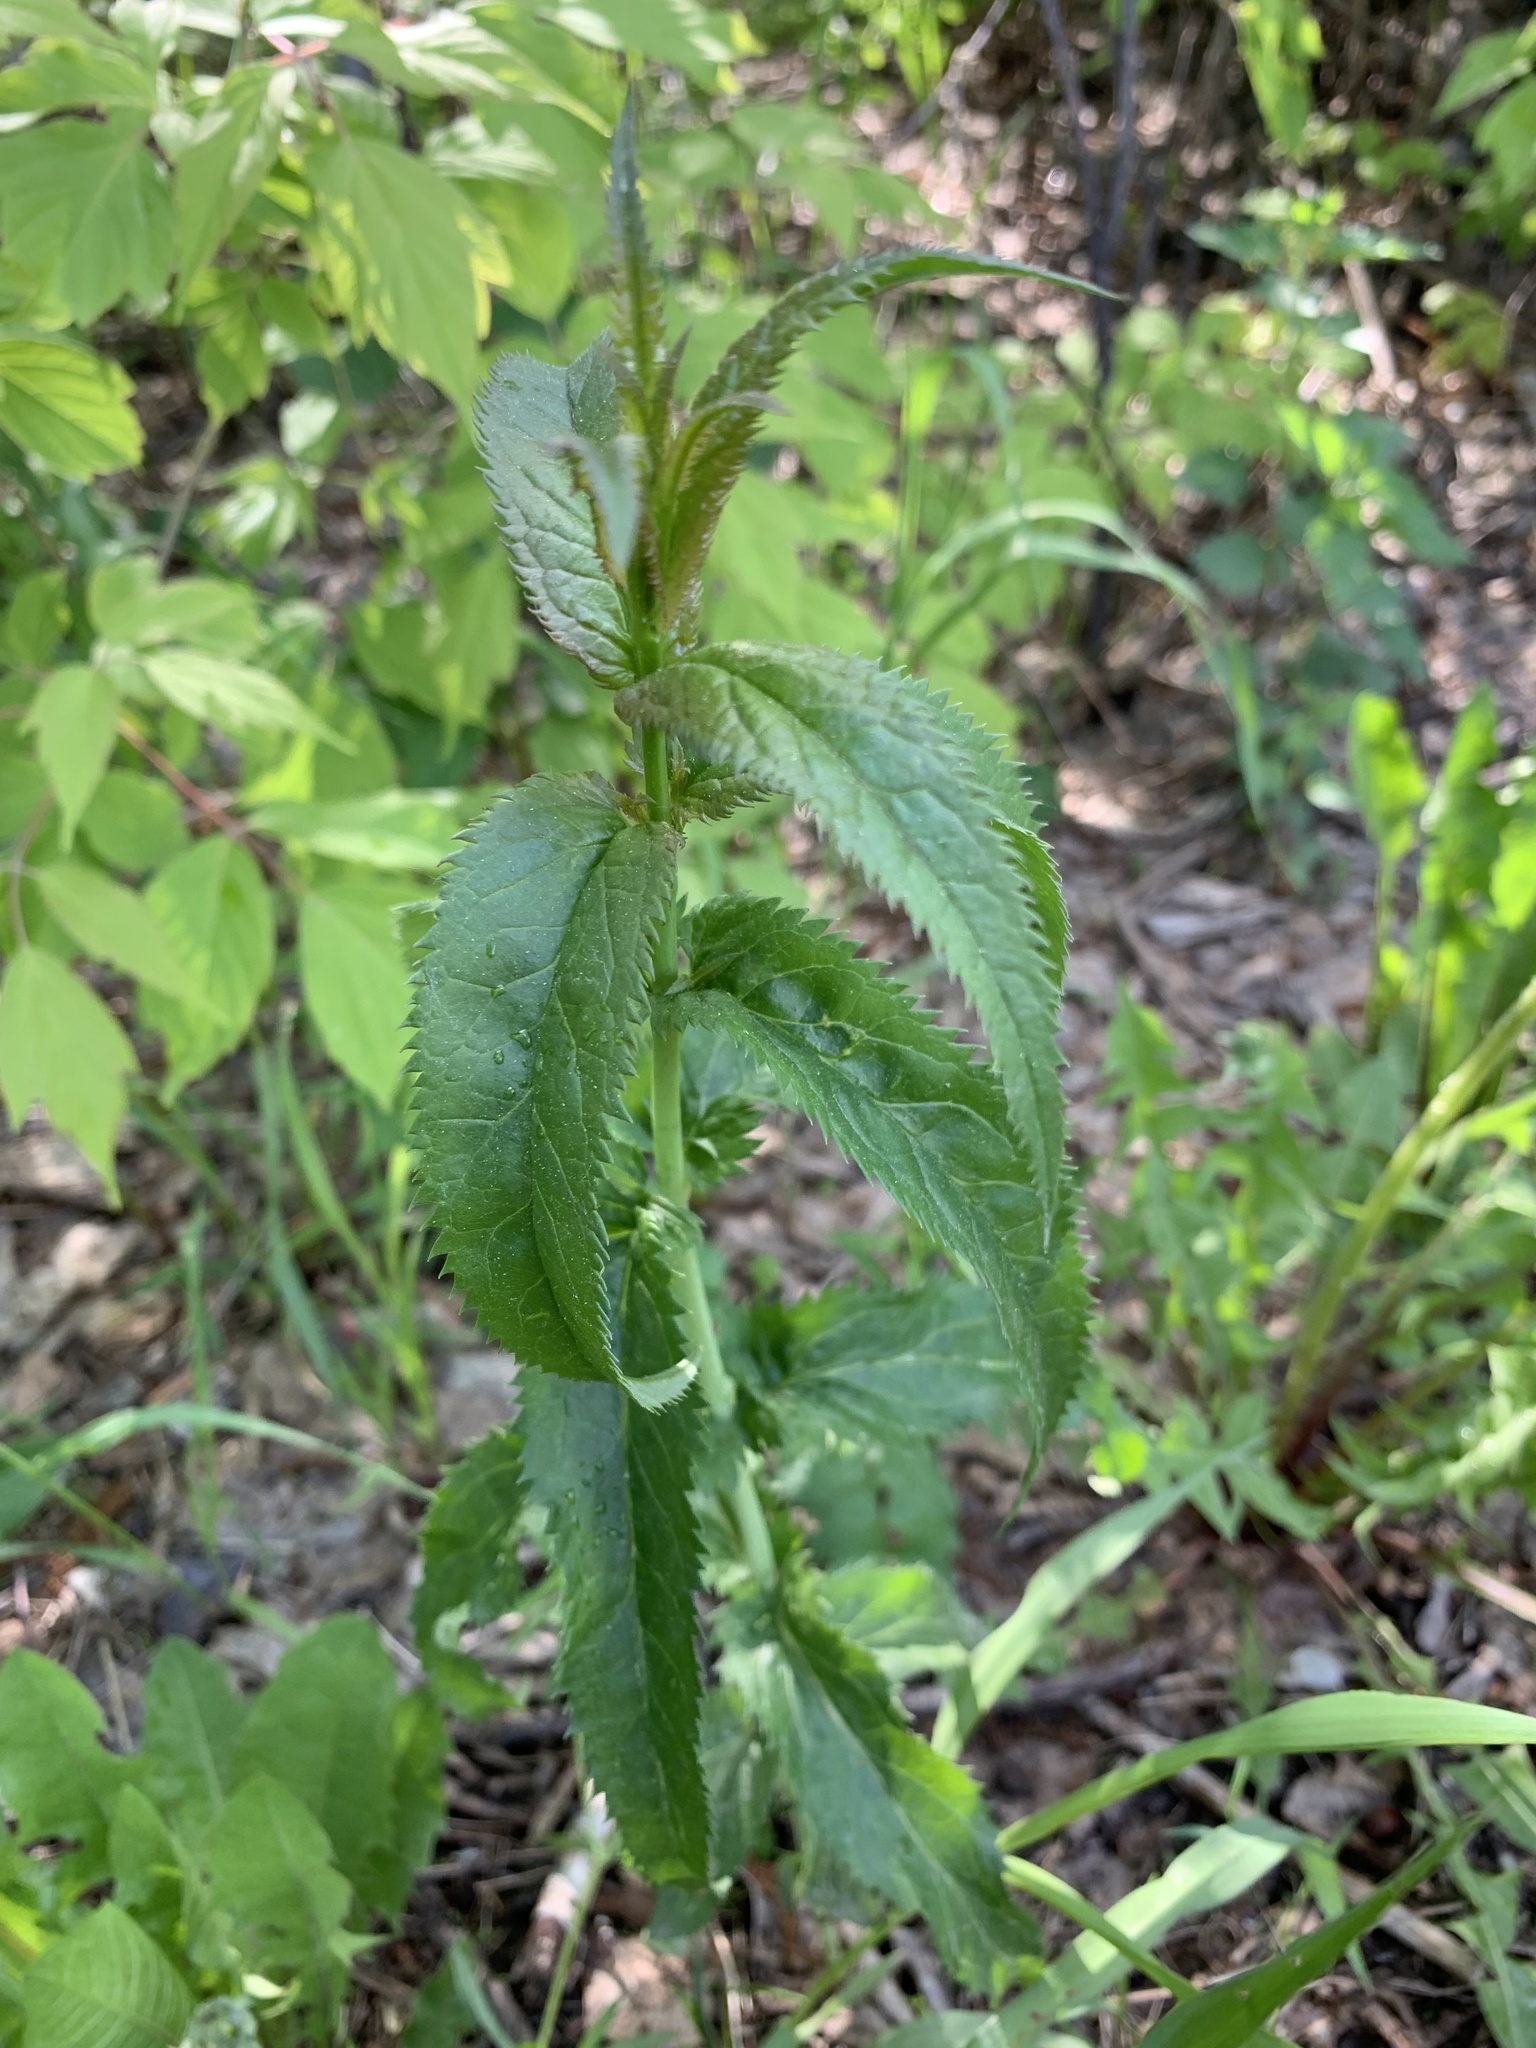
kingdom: Plantae
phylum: Tracheophyta
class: Magnoliopsida
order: Lamiales
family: Plantaginaceae
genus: Veronica
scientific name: Veronica longifolia
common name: Garden speedwell
